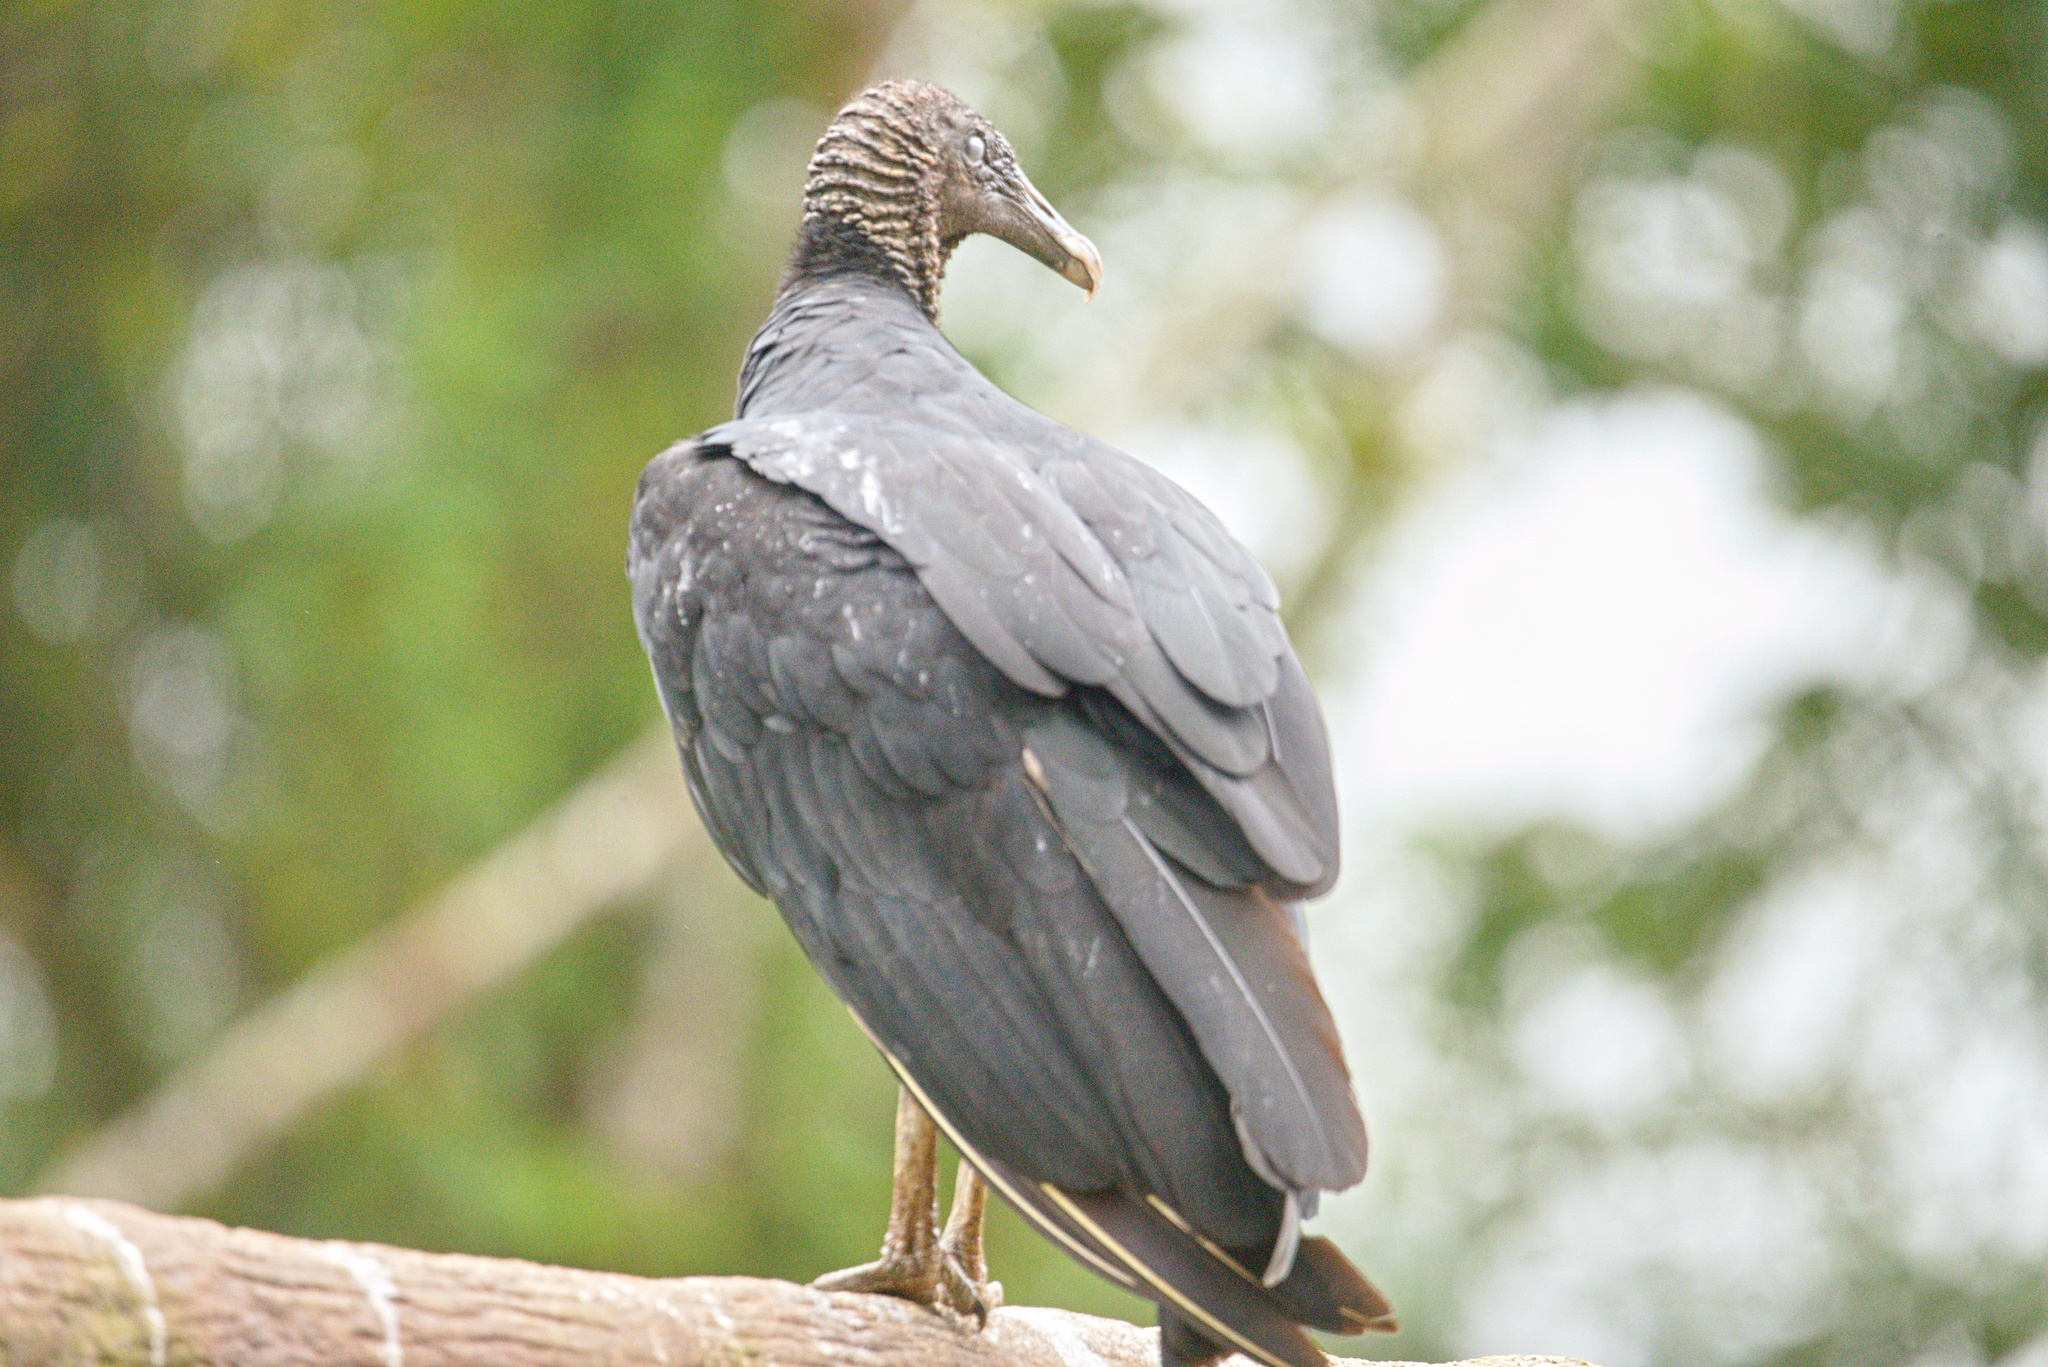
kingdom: Animalia
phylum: Chordata
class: Aves
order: Accipitriformes
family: Cathartidae
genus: Coragyps
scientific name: Coragyps atratus
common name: Black vulture
